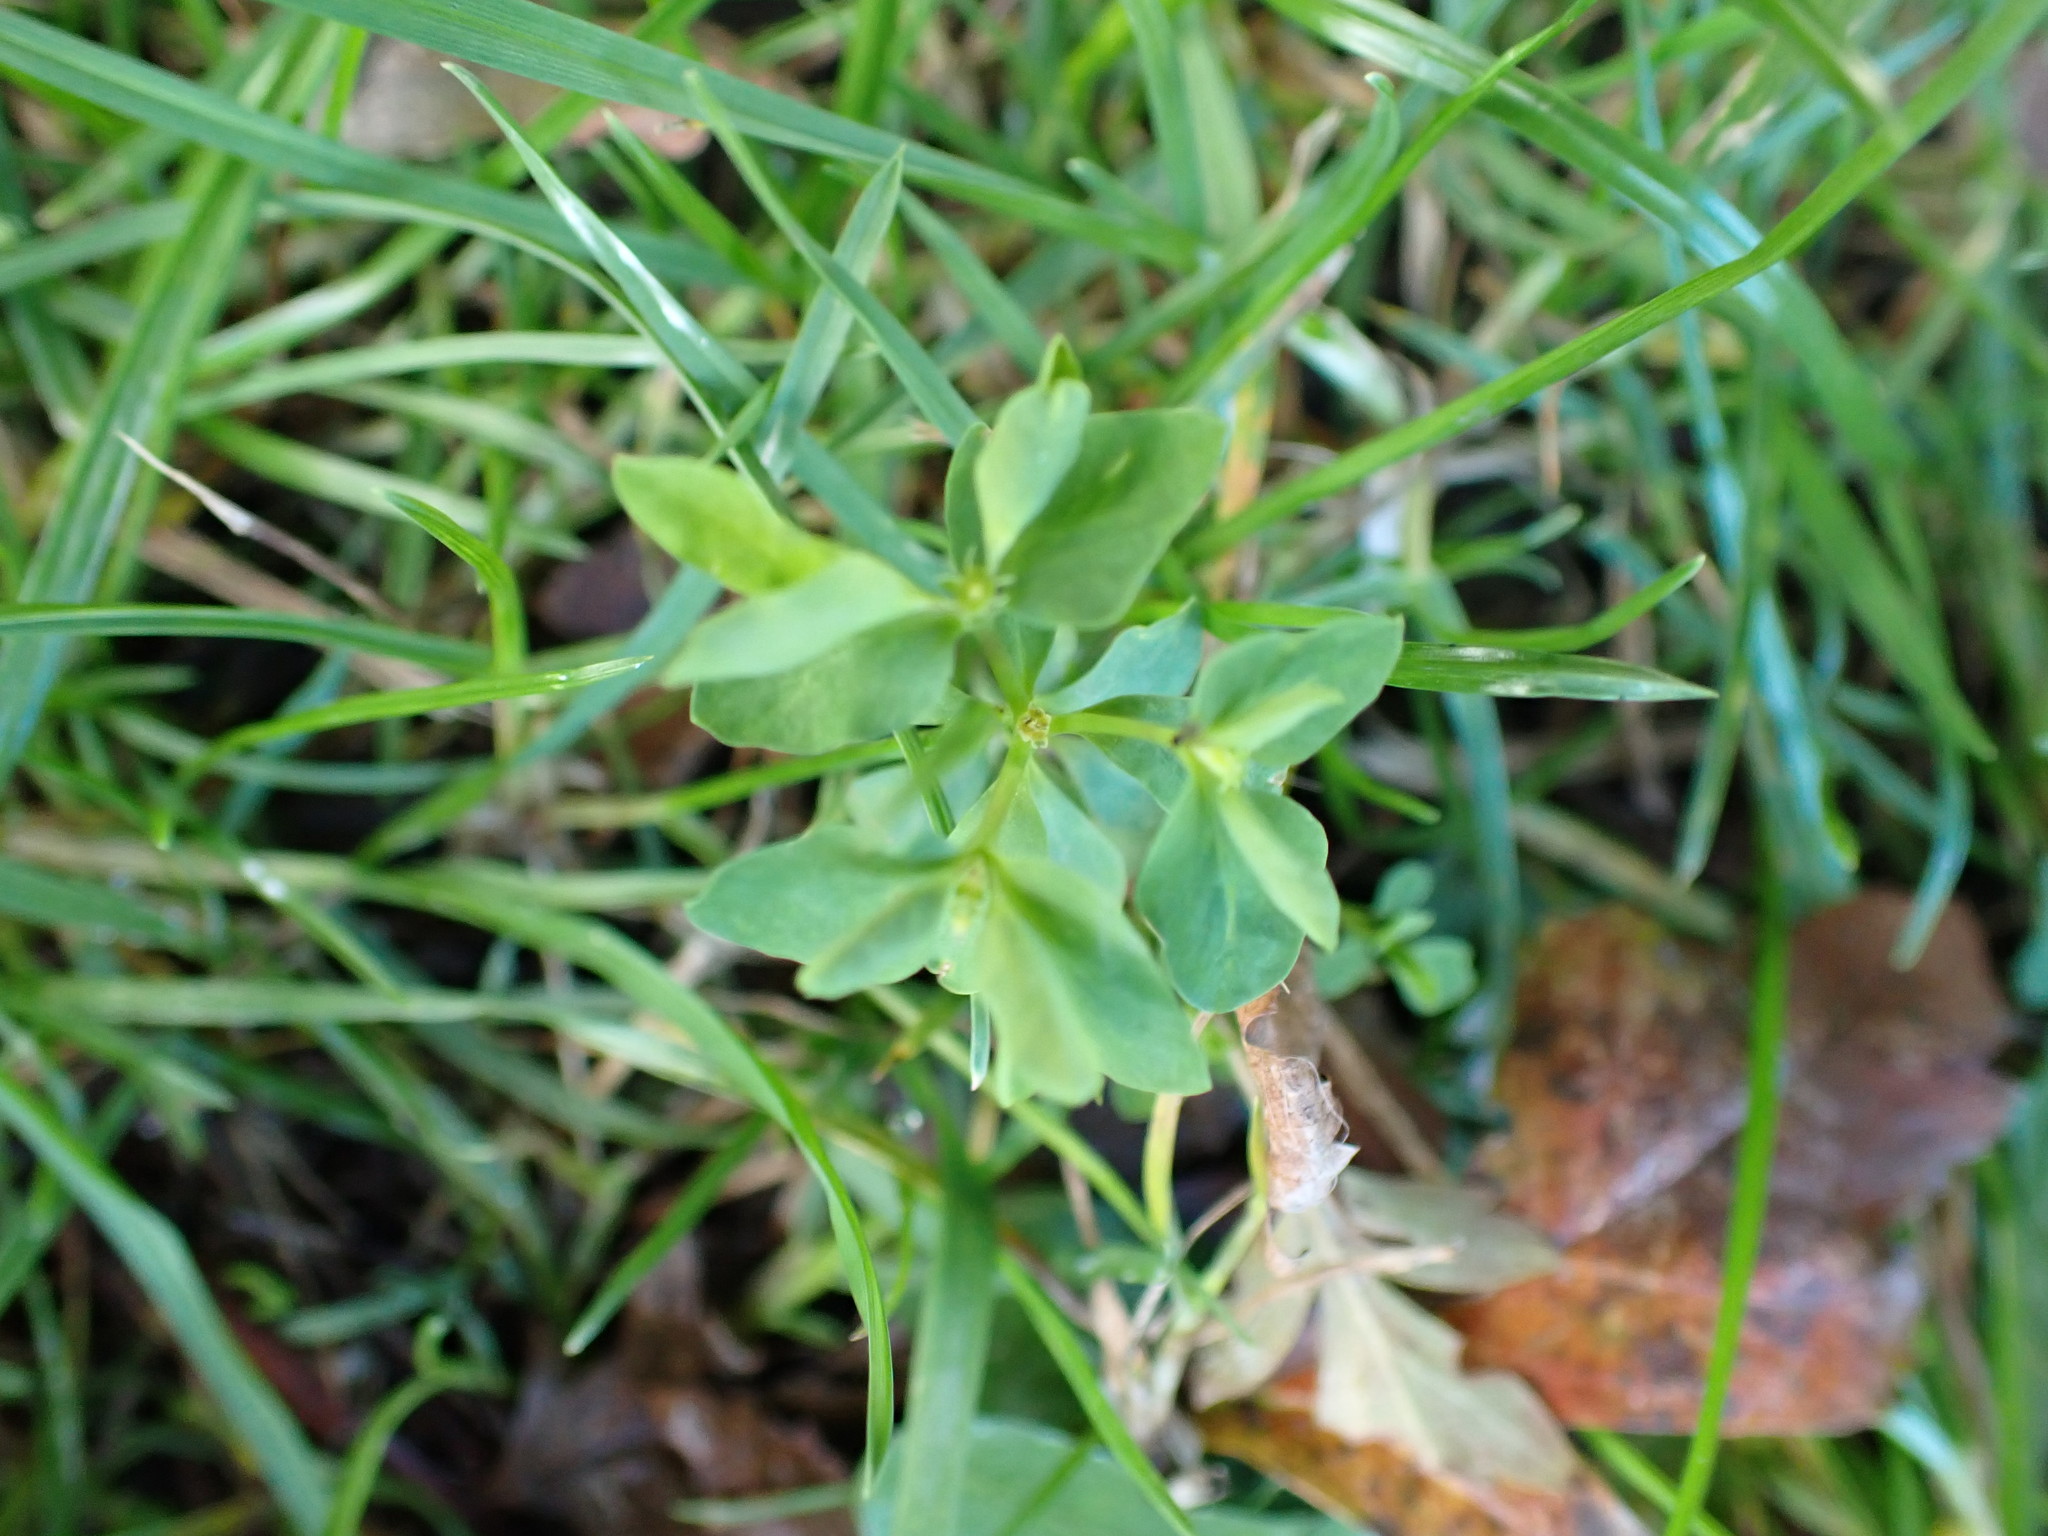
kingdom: Plantae
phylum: Tracheophyta
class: Magnoliopsida
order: Malpighiales
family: Euphorbiaceae
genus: Euphorbia
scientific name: Euphorbia peplus
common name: Petty spurge
